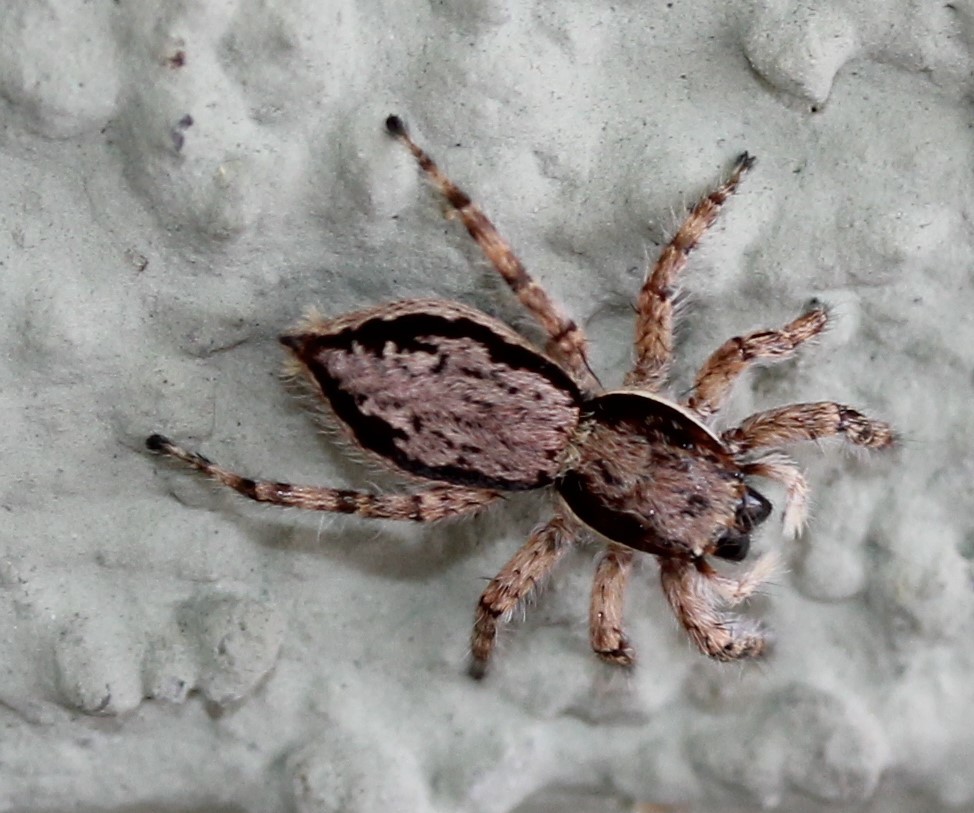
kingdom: Animalia
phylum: Arthropoda
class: Arachnida
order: Araneae
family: Salticidae
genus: Menemerus
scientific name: Menemerus bivittatus
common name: Gray wall jumper
